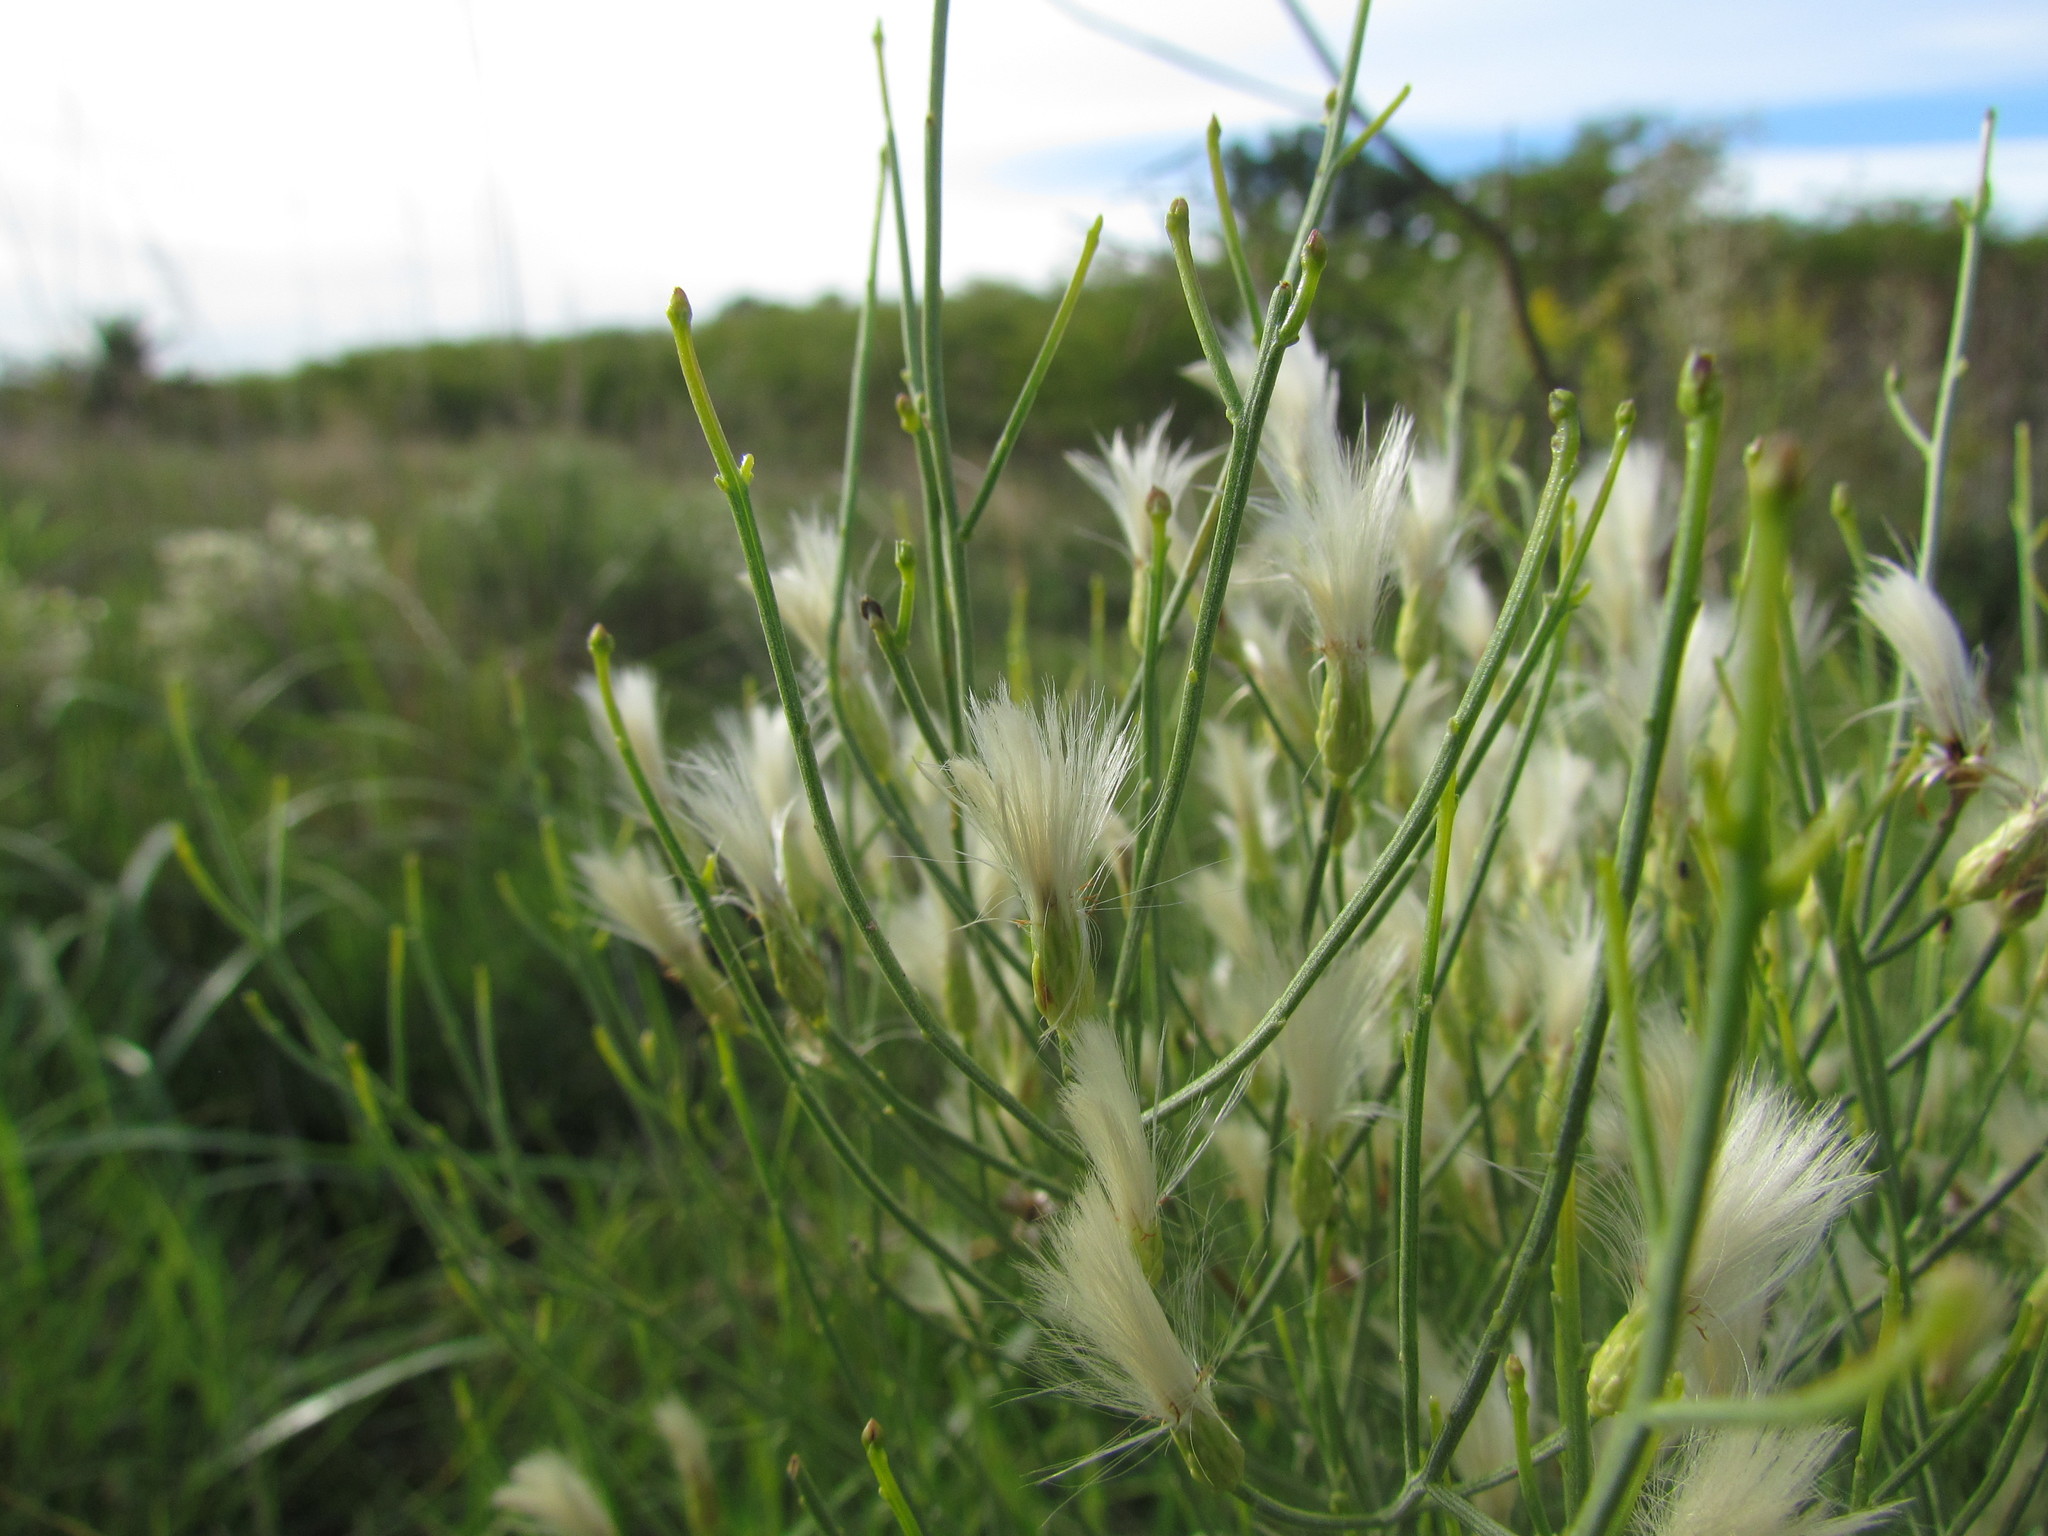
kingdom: Plantae
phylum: Tracheophyta
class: Magnoliopsida
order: Asterales
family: Asteraceae
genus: Baccharis
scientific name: Baccharis notosergila
